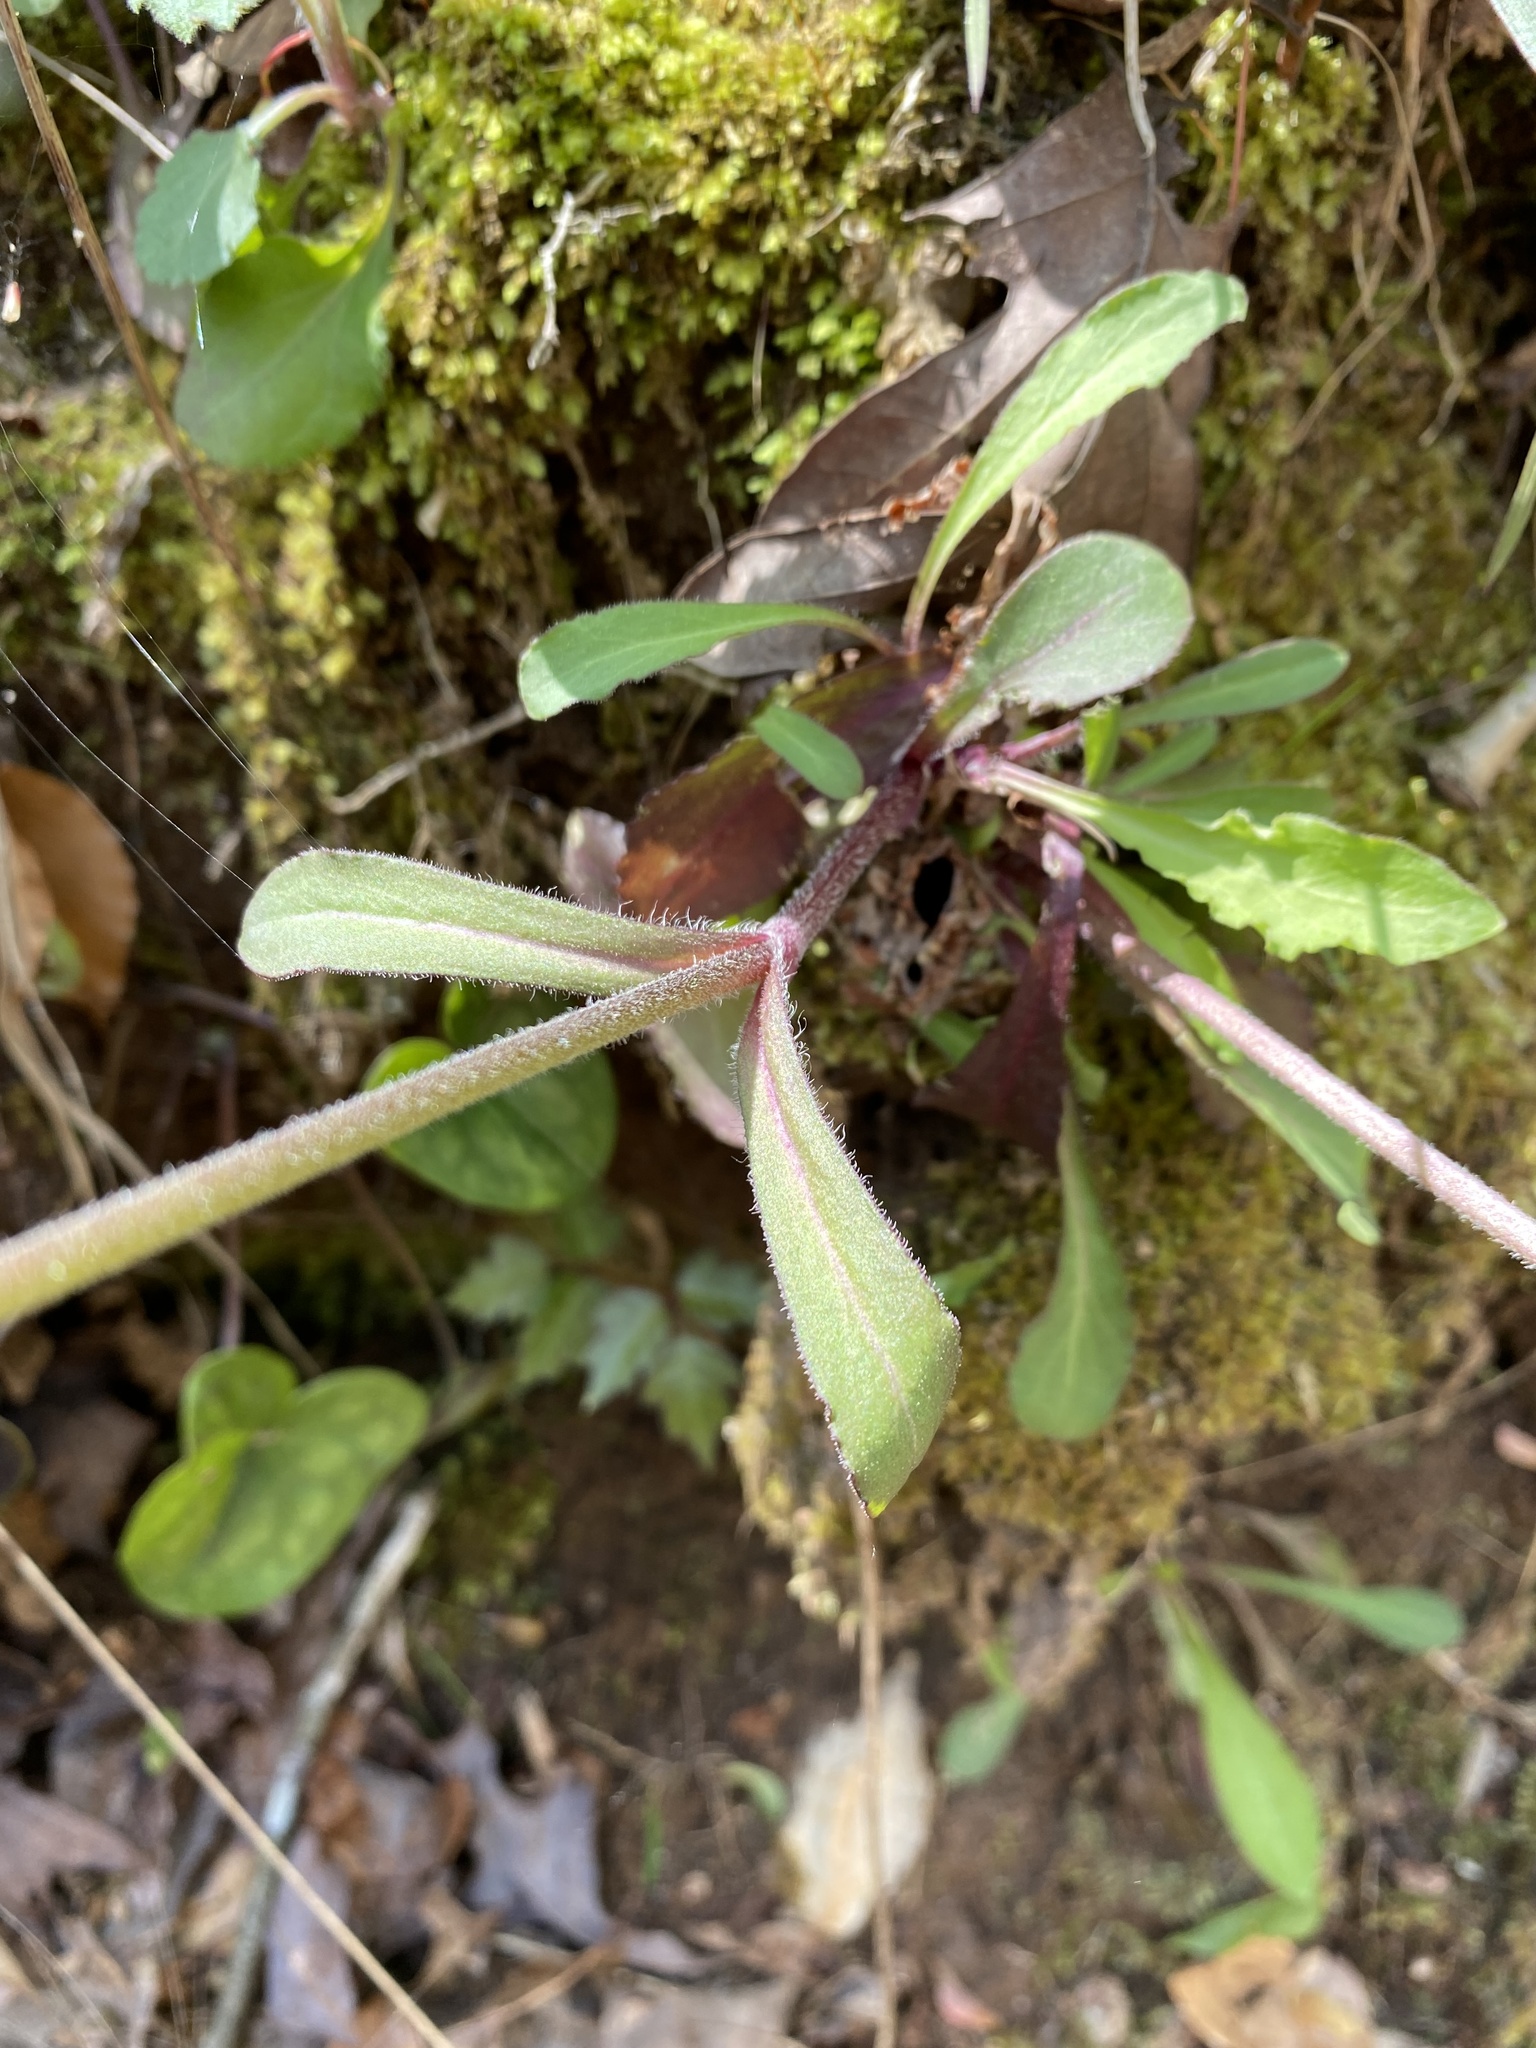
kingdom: Plantae
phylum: Tracheophyta
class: Magnoliopsida
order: Caryophyllales
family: Caryophyllaceae
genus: Silene
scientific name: Silene virginica
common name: Fire-pink
